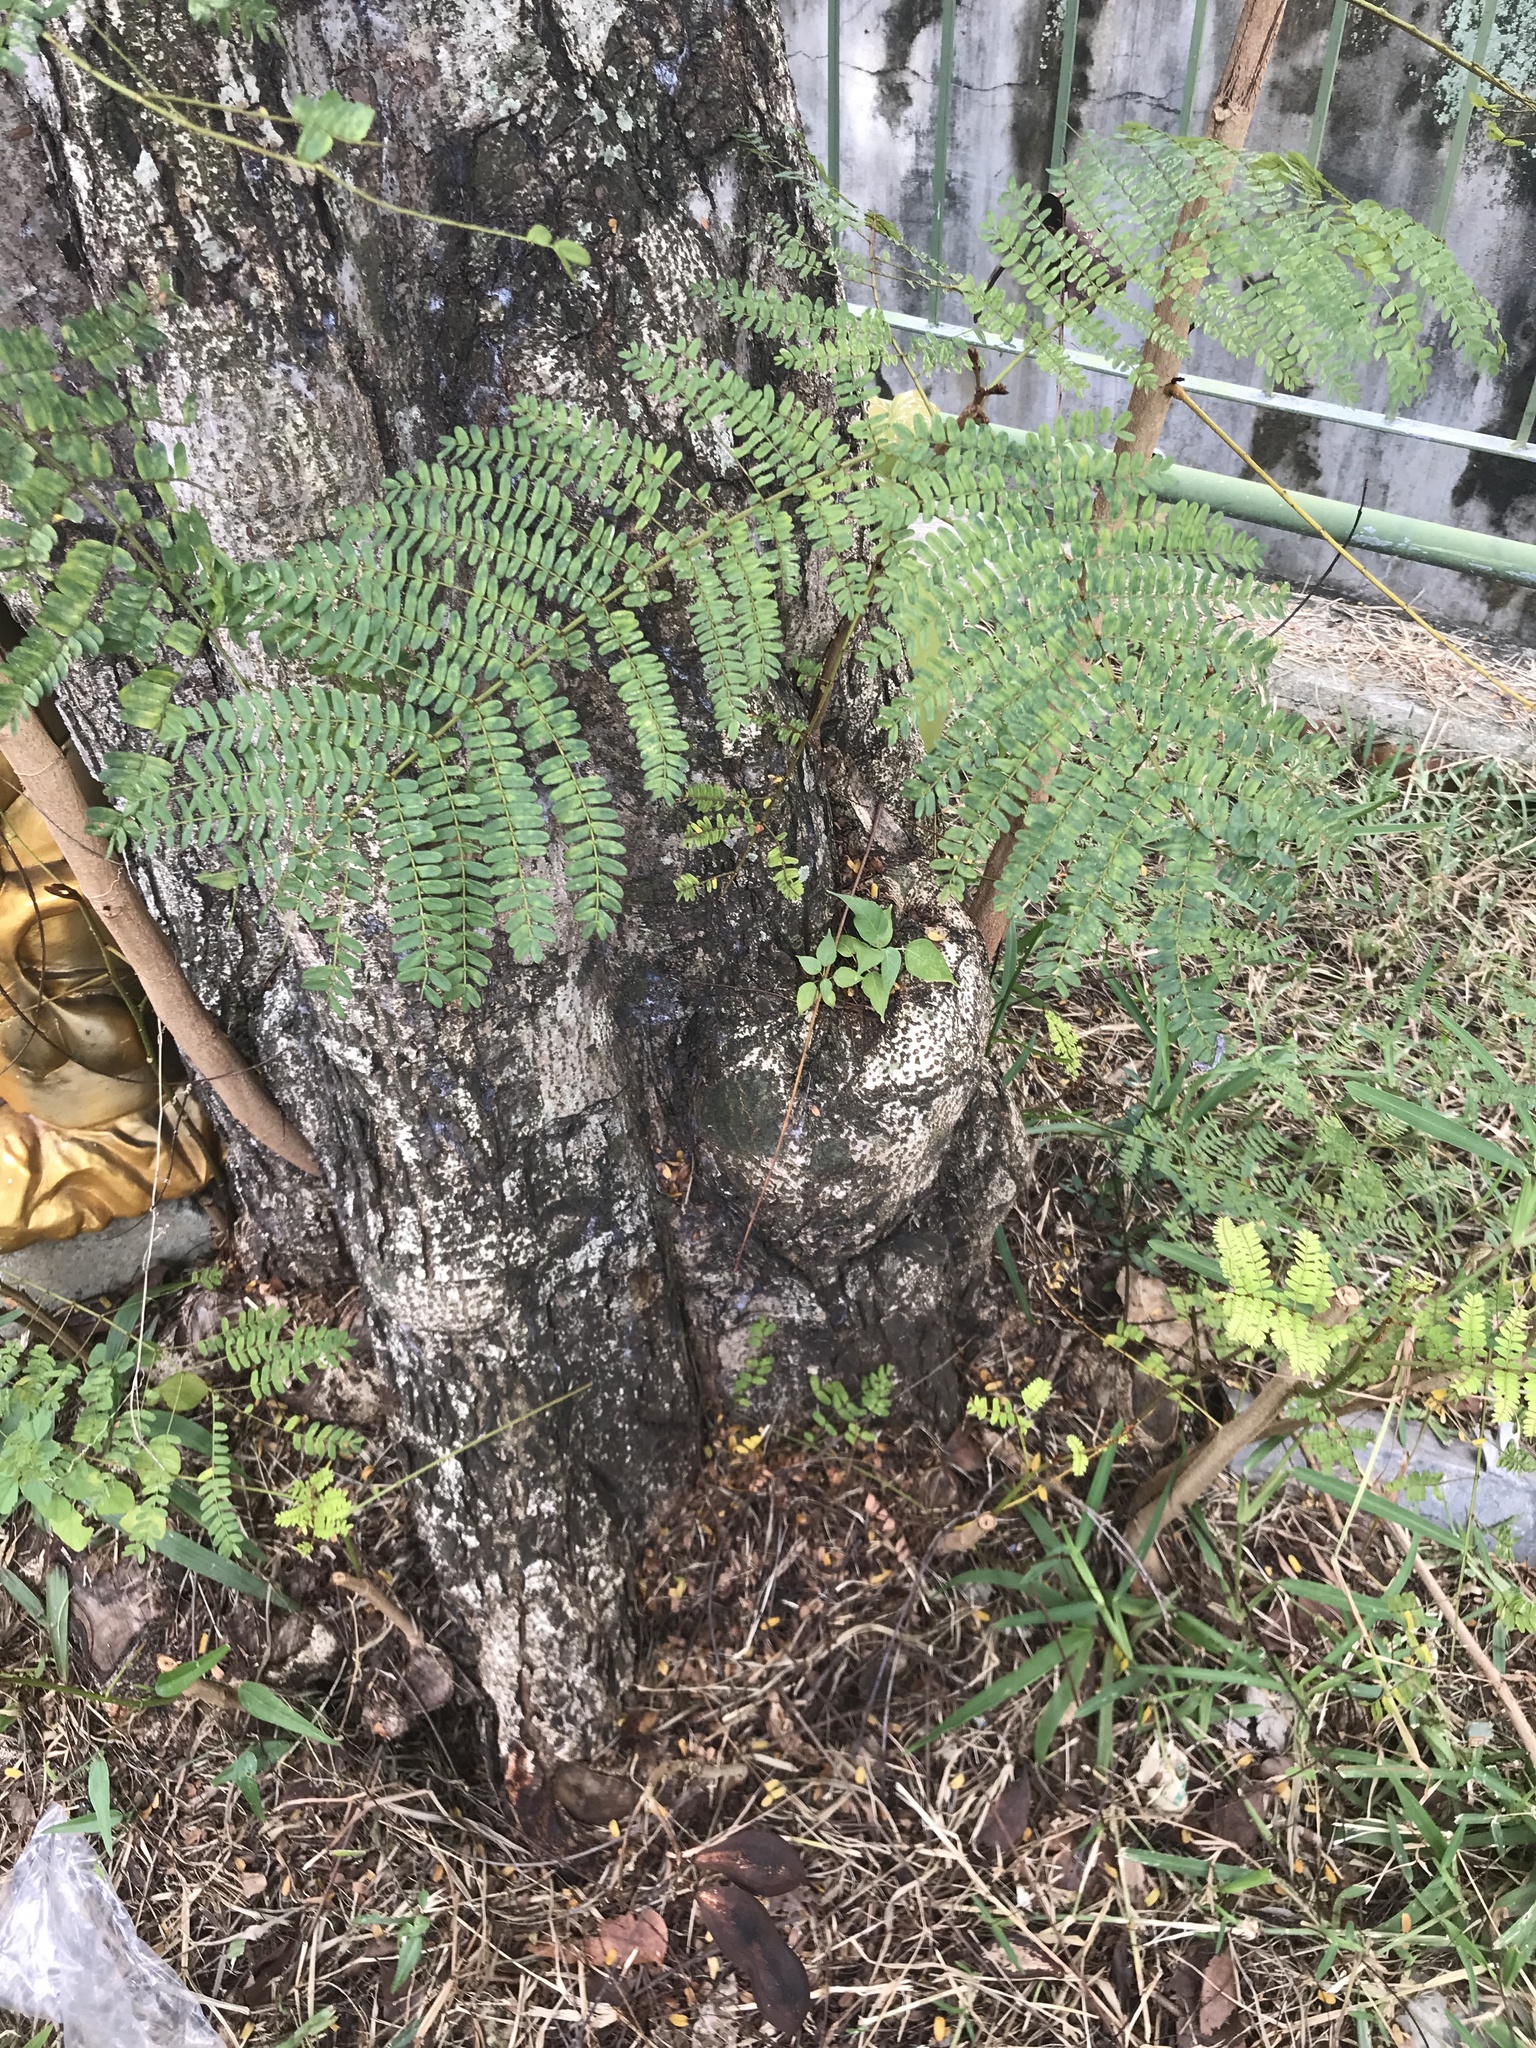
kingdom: Plantae
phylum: Tracheophyta
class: Magnoliopsida
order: Fabales
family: Fabaceae
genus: Peltophorum
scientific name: Peltophorum pterocarpum
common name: Yellow flame
